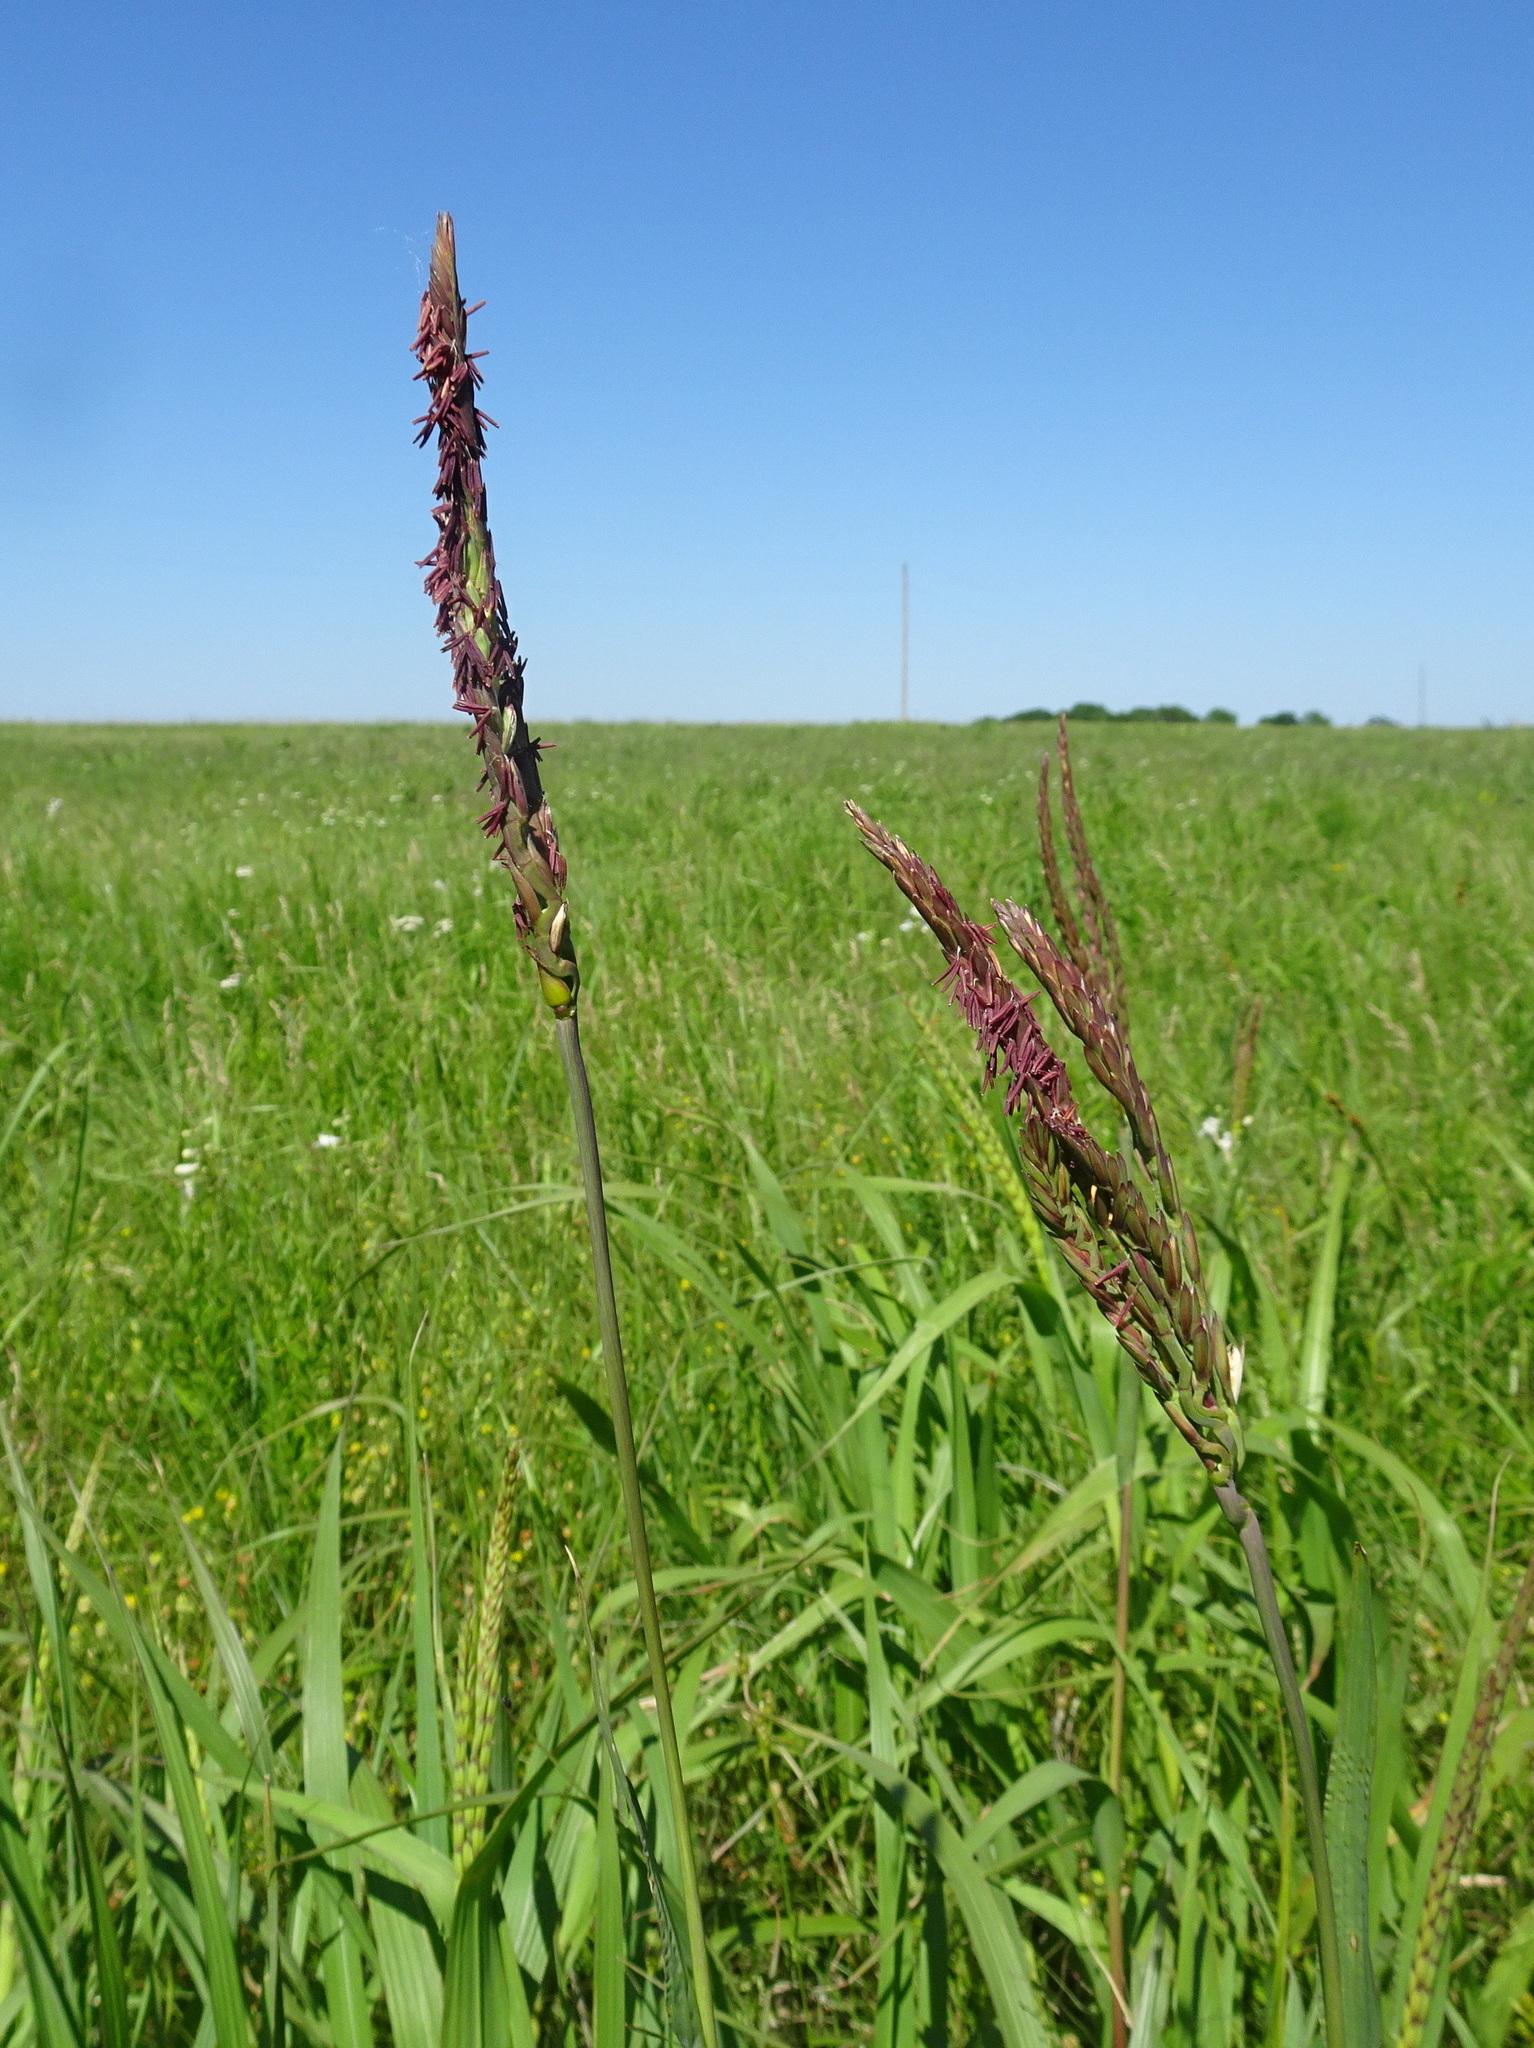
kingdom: Plantae
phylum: Tracheophyta
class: Liliopsida
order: Poales
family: Poaceae
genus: Tripsacum
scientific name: Tripsacum dactyloides
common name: Buffalo-grass
